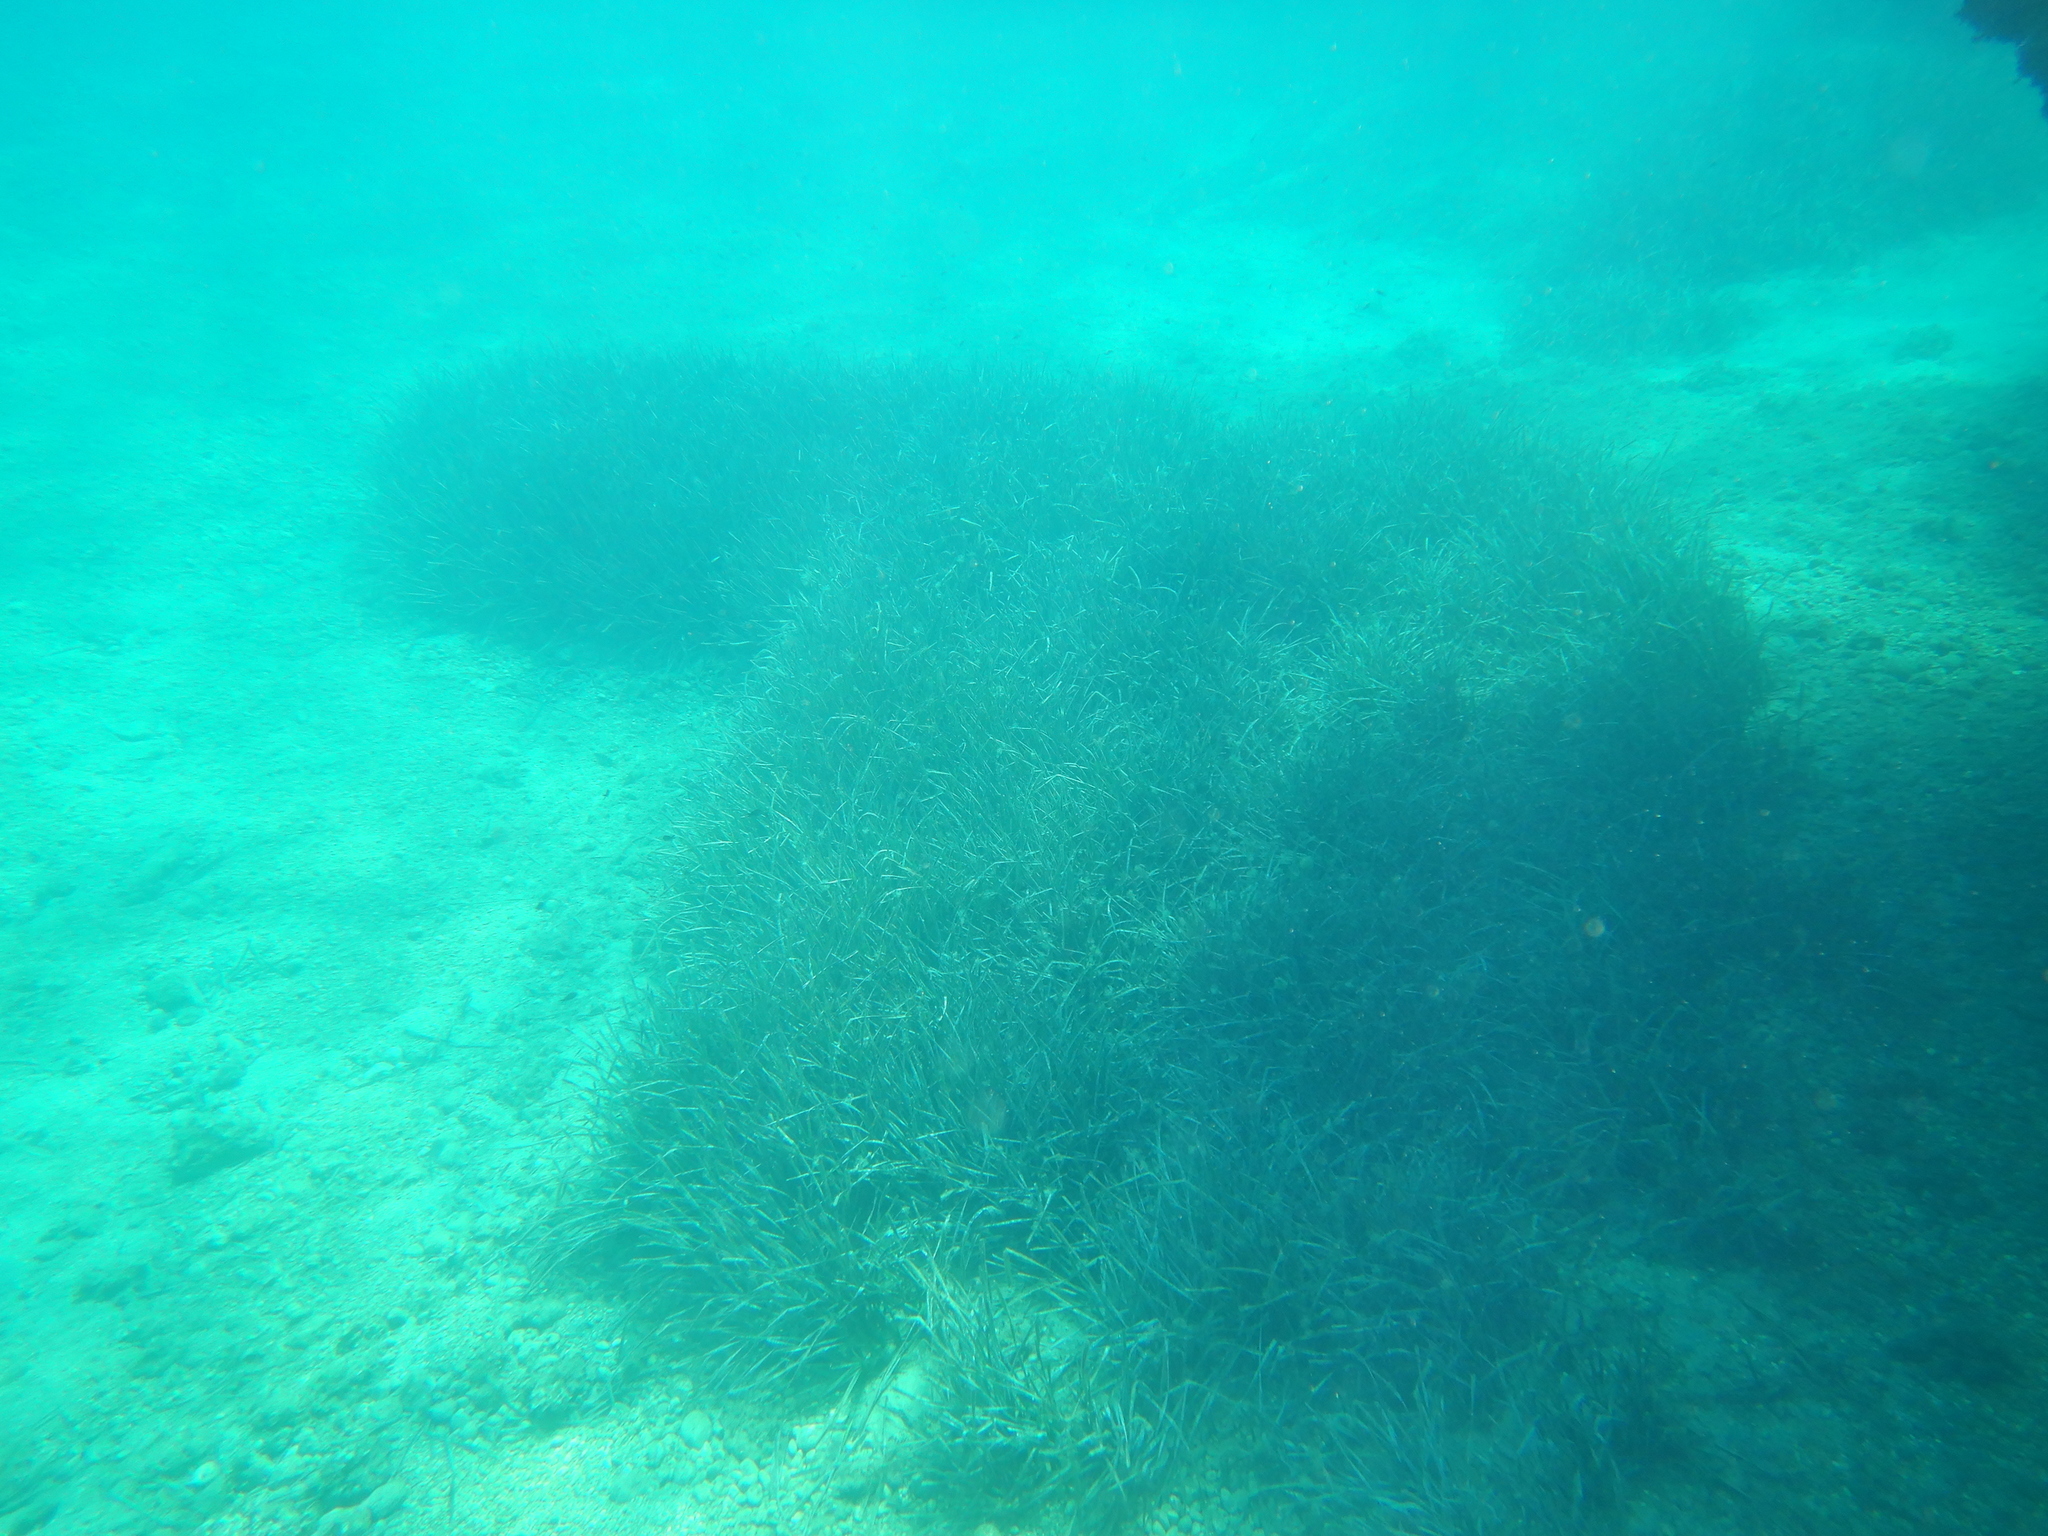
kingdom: Plantae
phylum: Tracheophyta
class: Liliopsida
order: Alismatales
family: Posidoniaceae
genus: Posidonia
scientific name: Posidonia oceanica
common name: Mediterranean tapeweed
